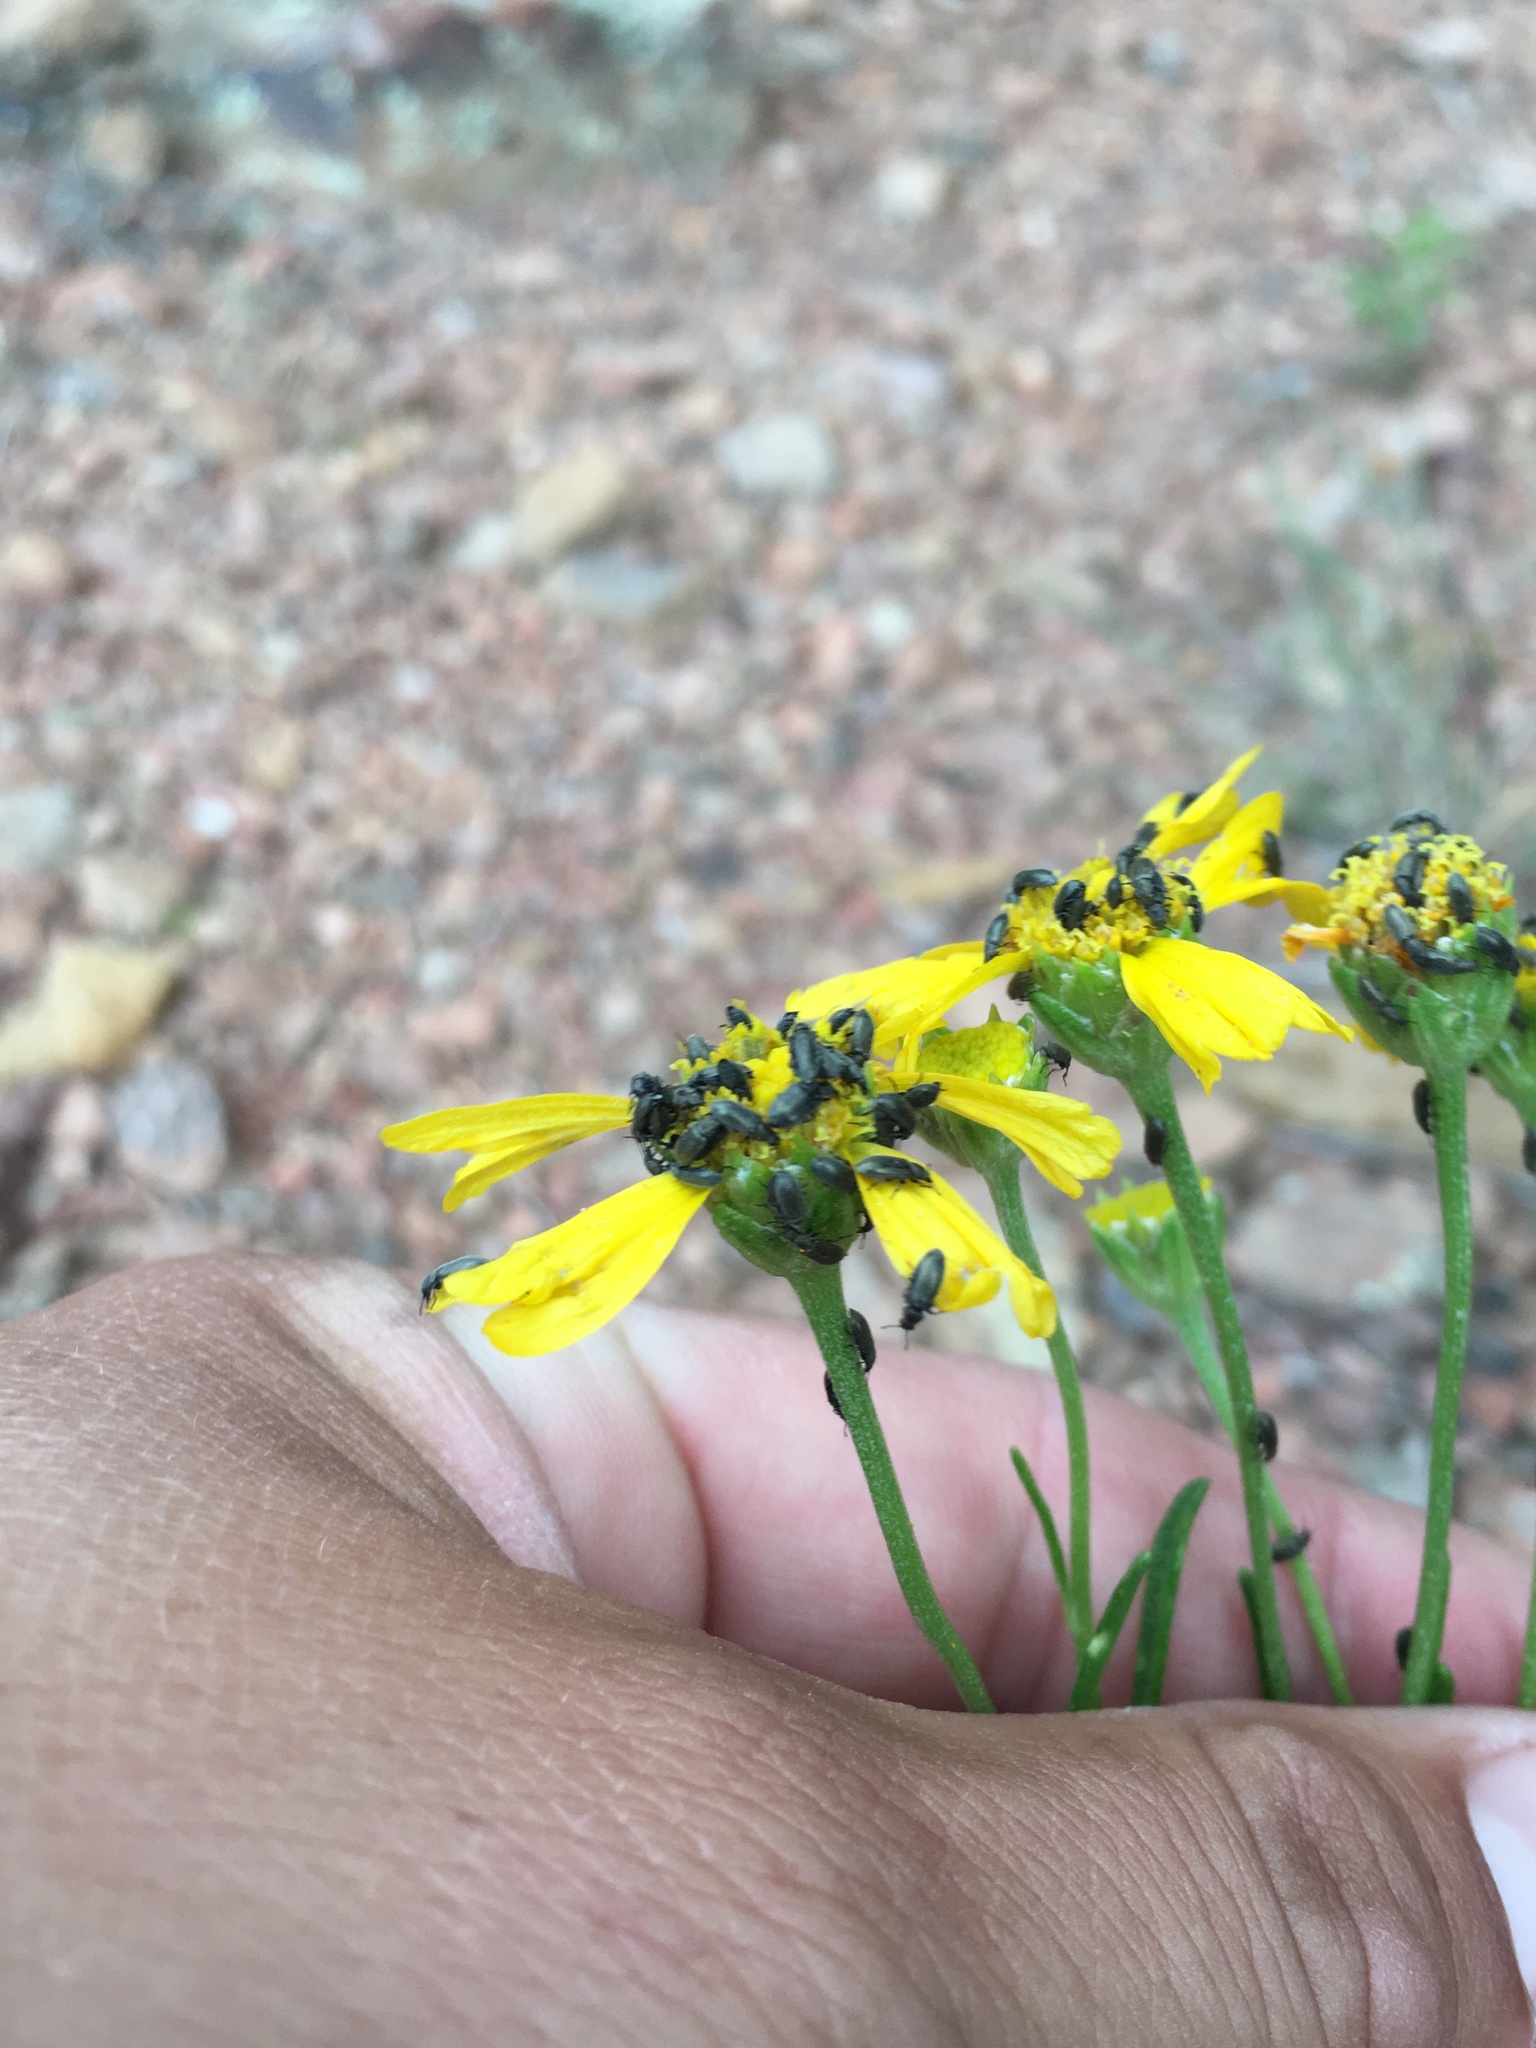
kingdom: Plantae
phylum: Tracheophyta
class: Magnoliopsida
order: Asterales
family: Asteraceae
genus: Hymenoxys
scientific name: Hymenoxys quinquesquamata
